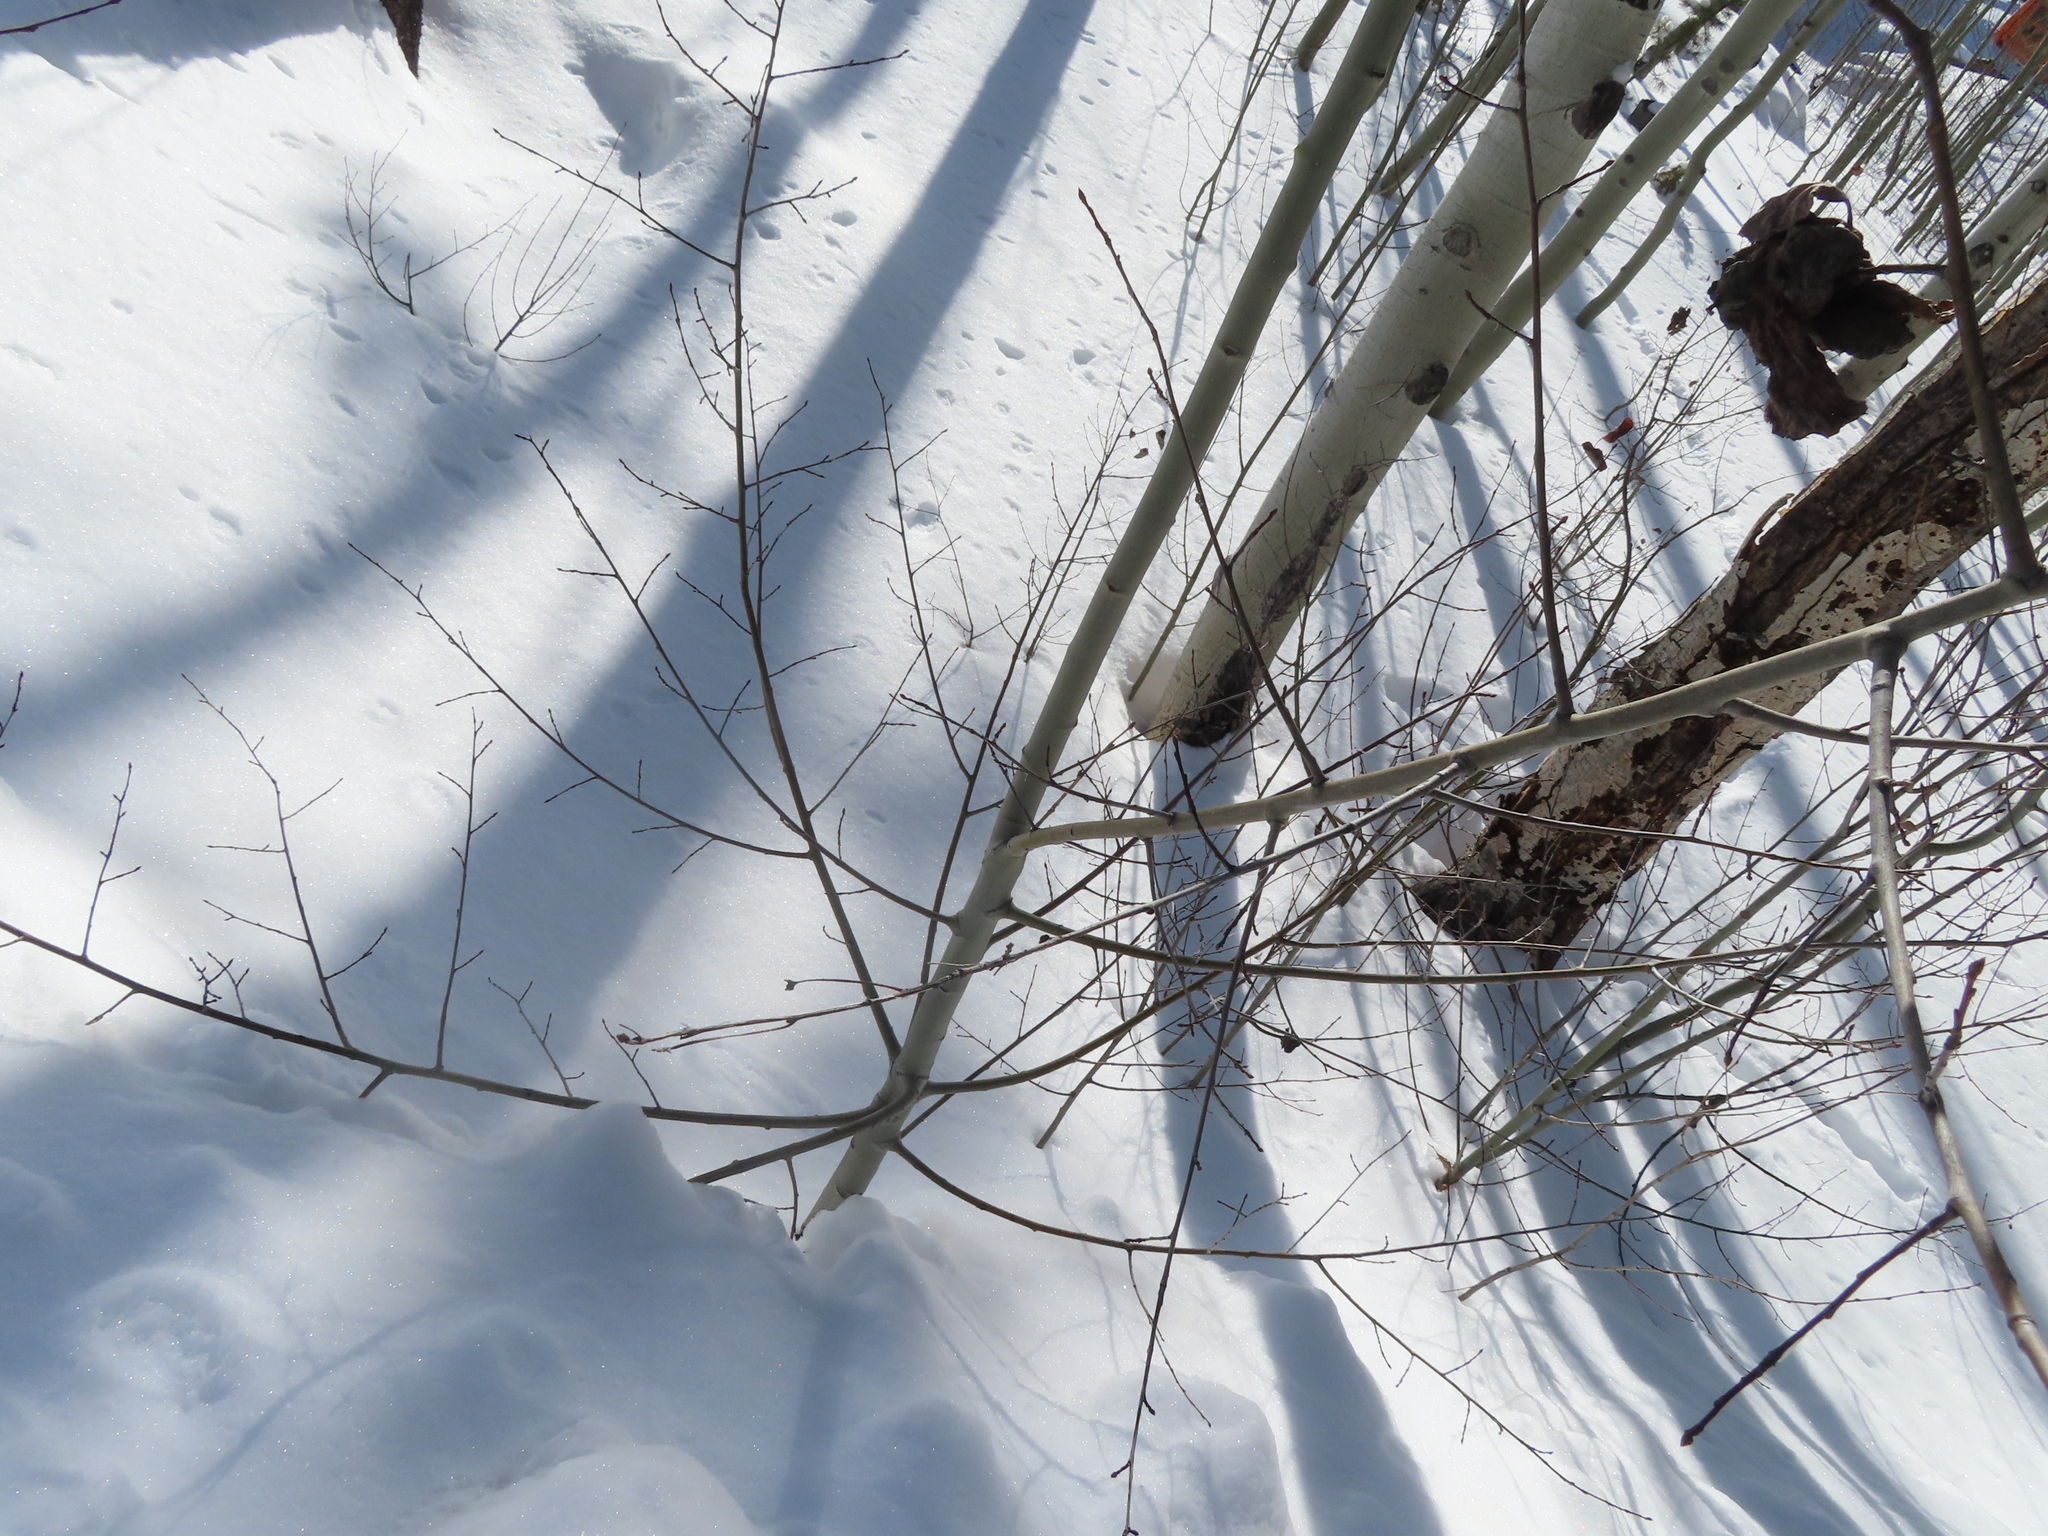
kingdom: Plantae
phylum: Tracheophyta
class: Magnoliopsida
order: Malpighiales
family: Salicaceae
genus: Populus
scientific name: Populus tremuloides
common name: Quaking aspen
